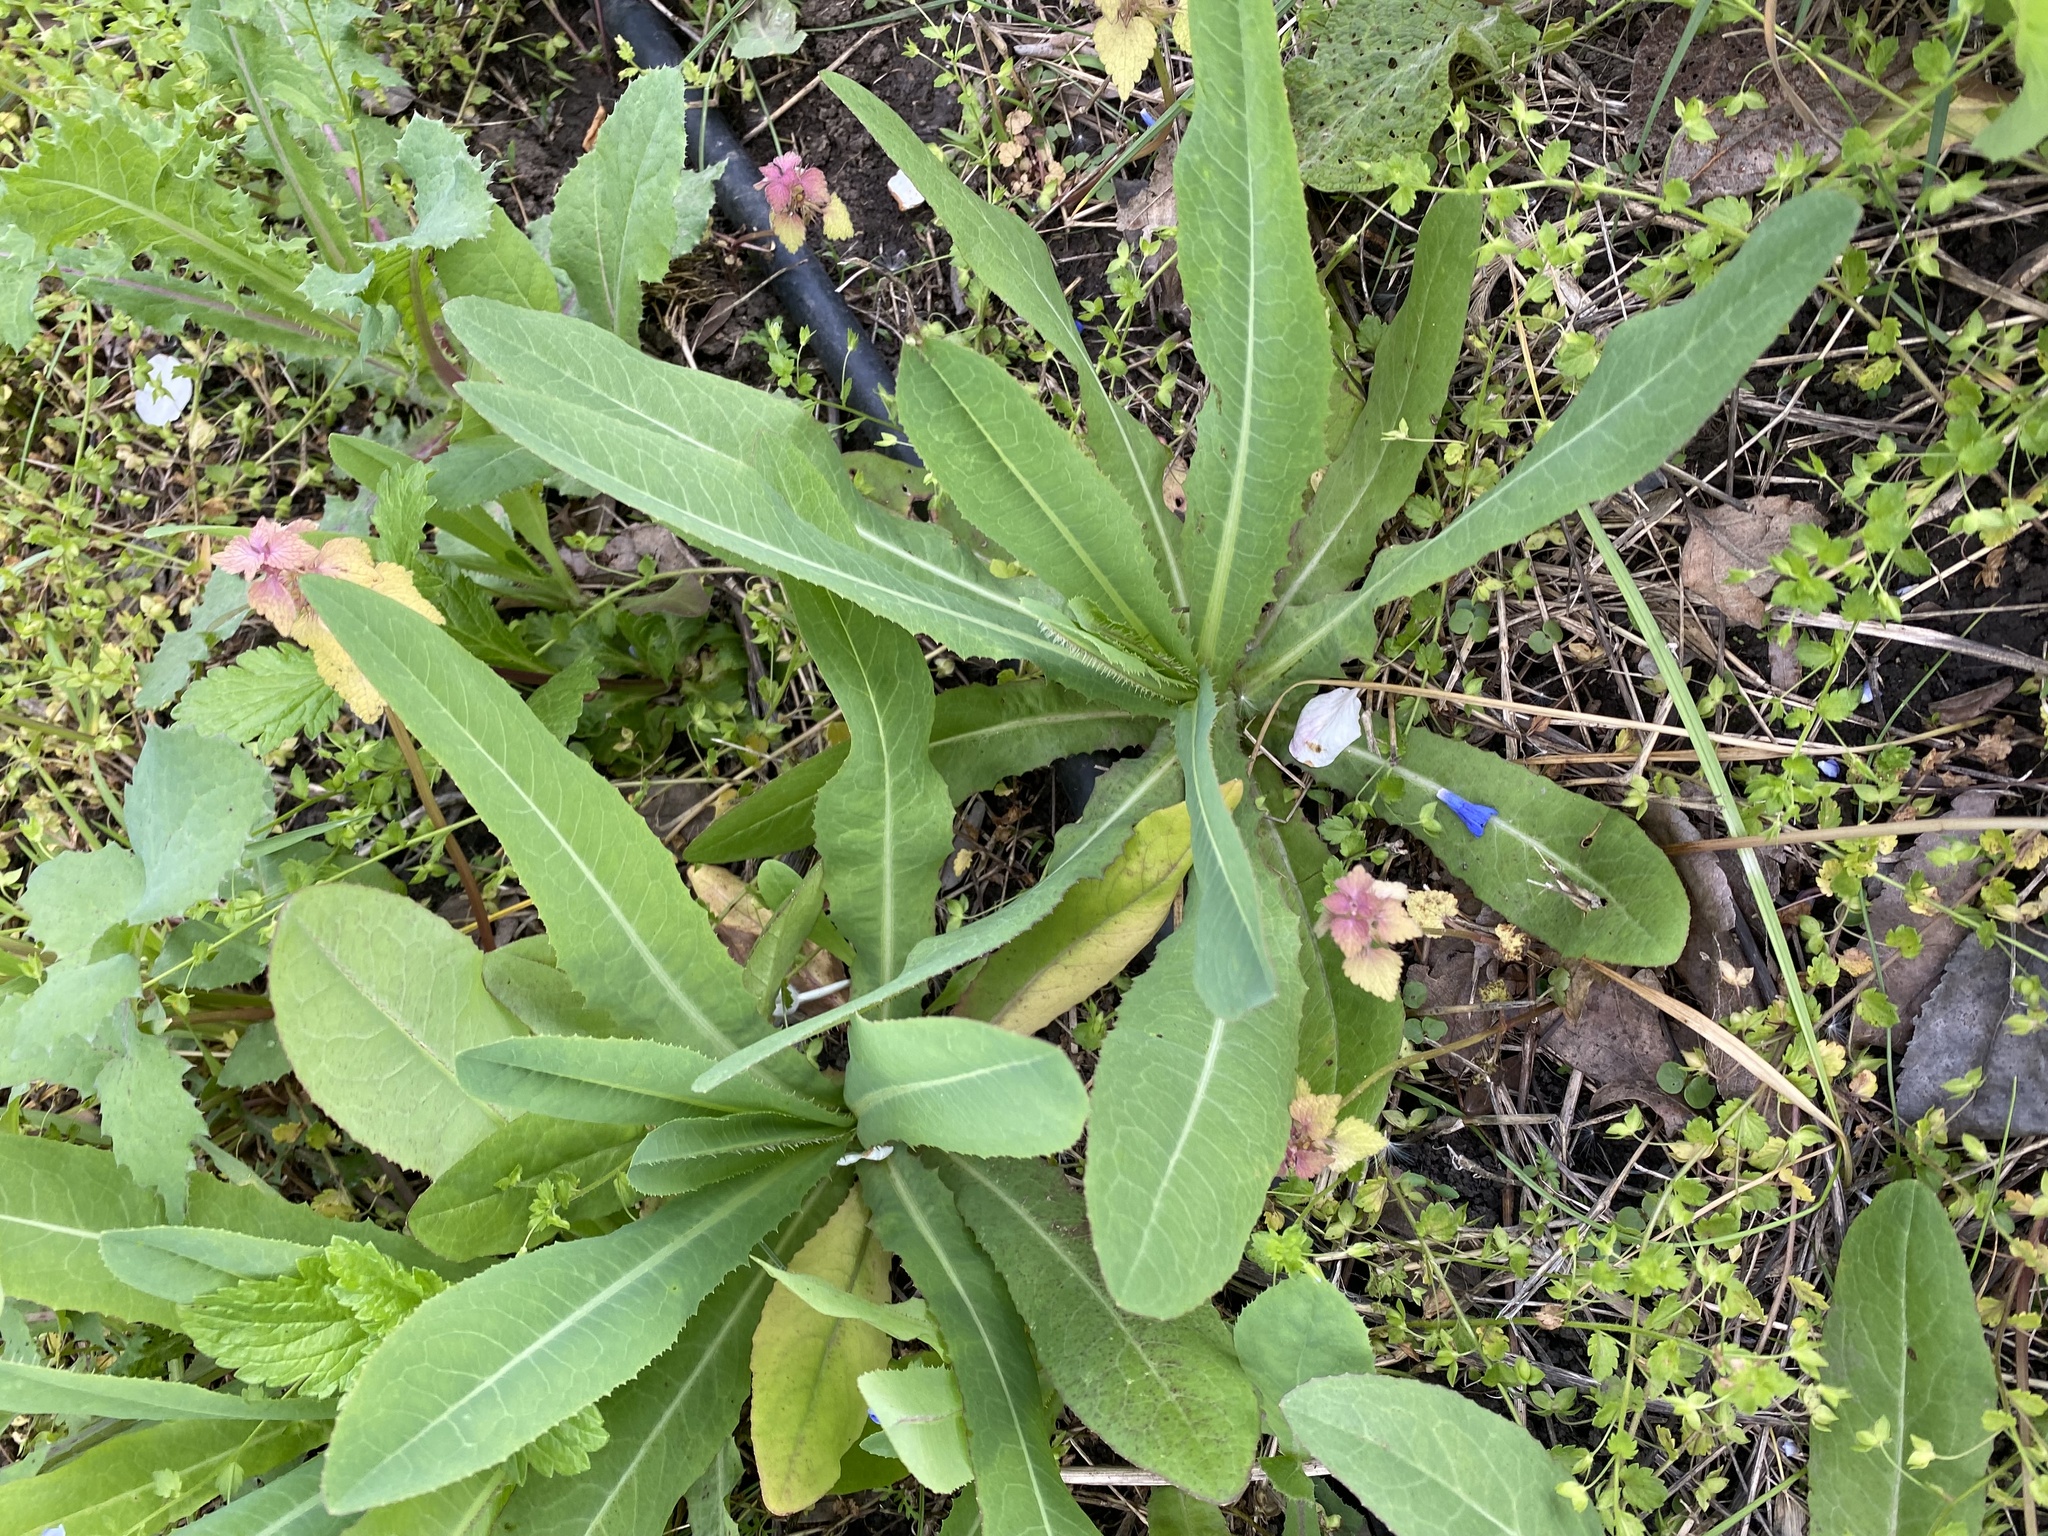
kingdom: Plantae
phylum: Tracheophyta
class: Magnoliopsida
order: Asterales
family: Asteraceae
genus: Lactuca
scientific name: Lactuca serriola
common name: Prickly lettuce
